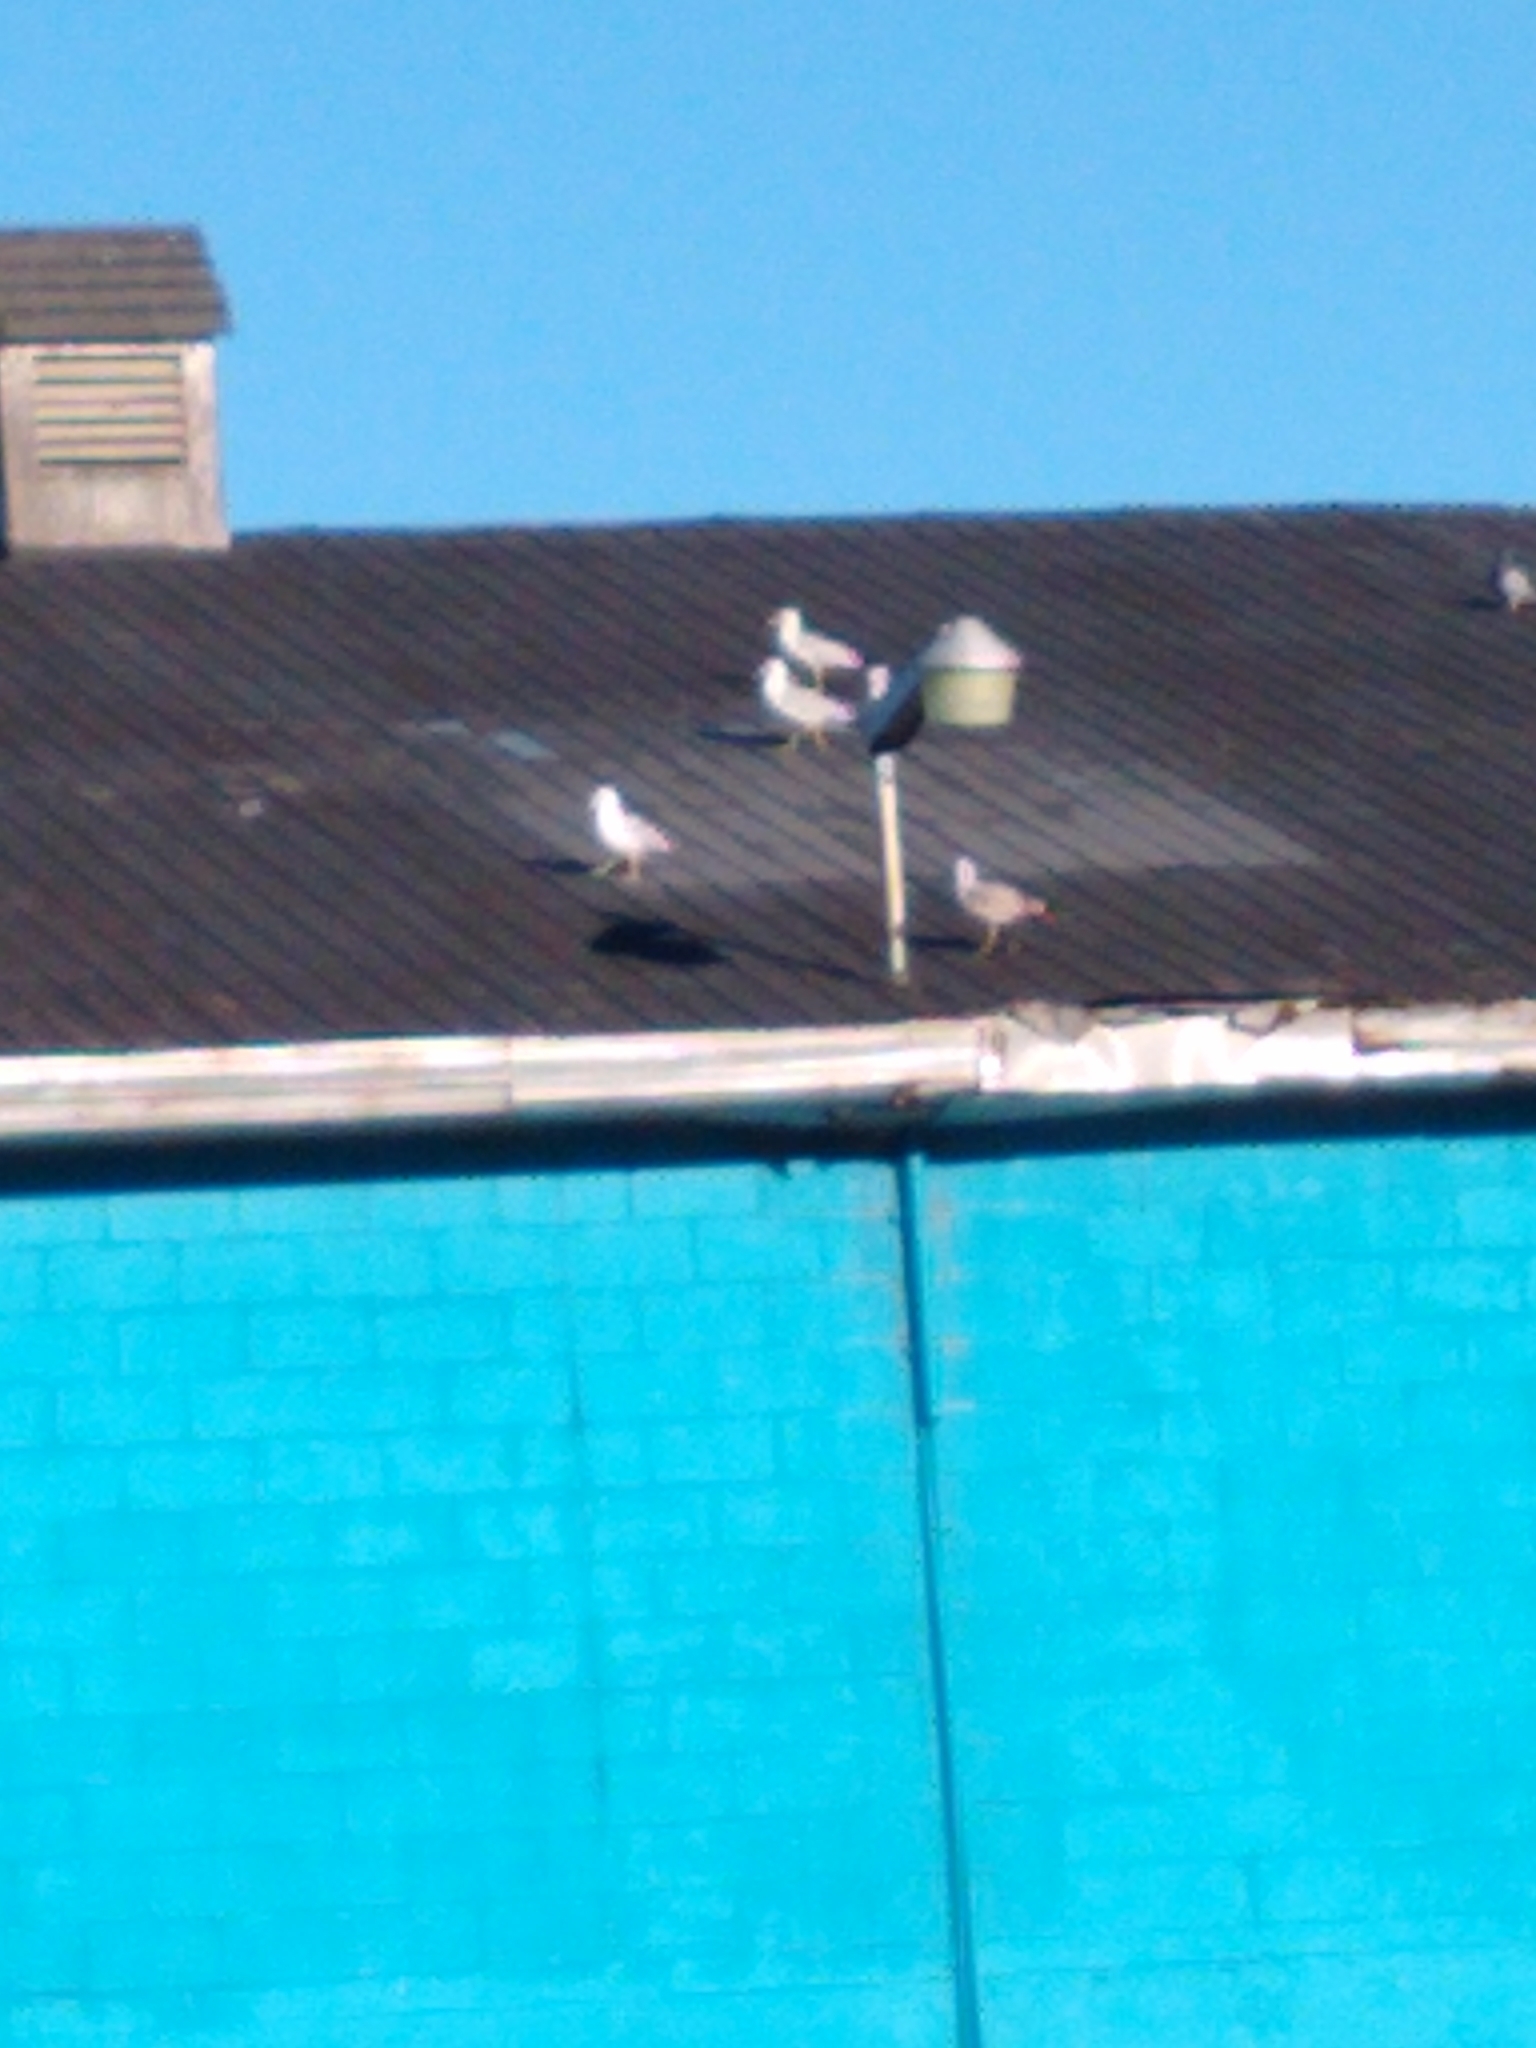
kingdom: Animalia
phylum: Chordata
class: Aves
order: Charadriiformes
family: Laridae
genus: Larus
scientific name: Larus
